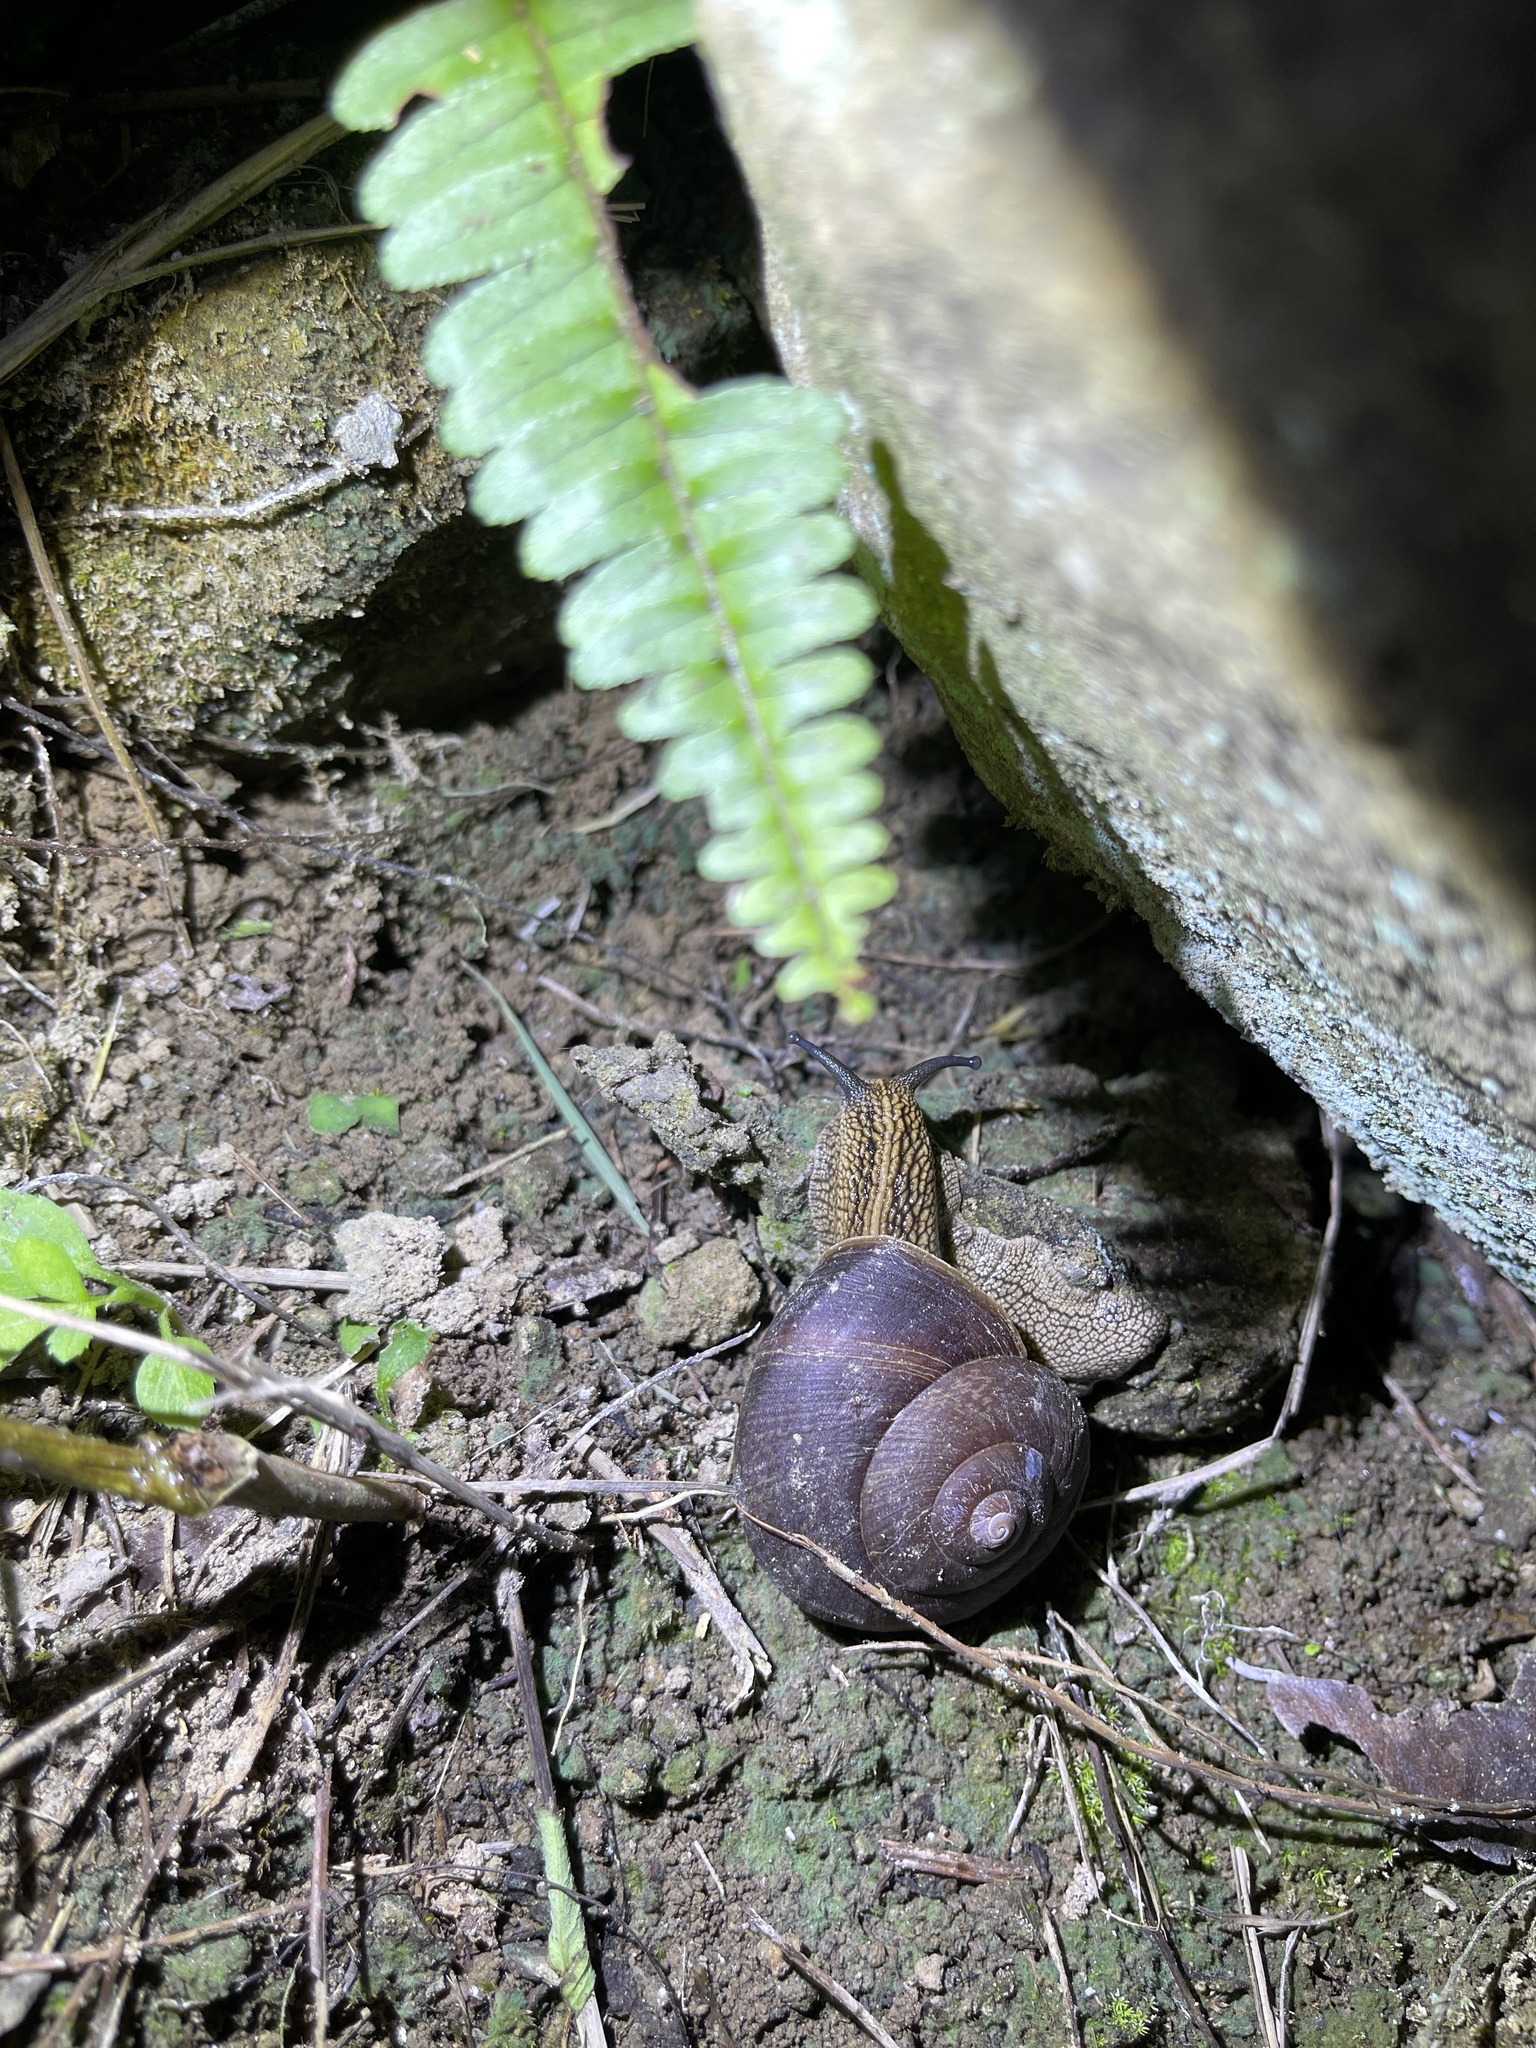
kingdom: Animalia
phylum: Mollusca
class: Gastropoda
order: Stylommatophora
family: Camaenidae
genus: Nesiohelix
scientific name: Nesiohelix swinhoei
